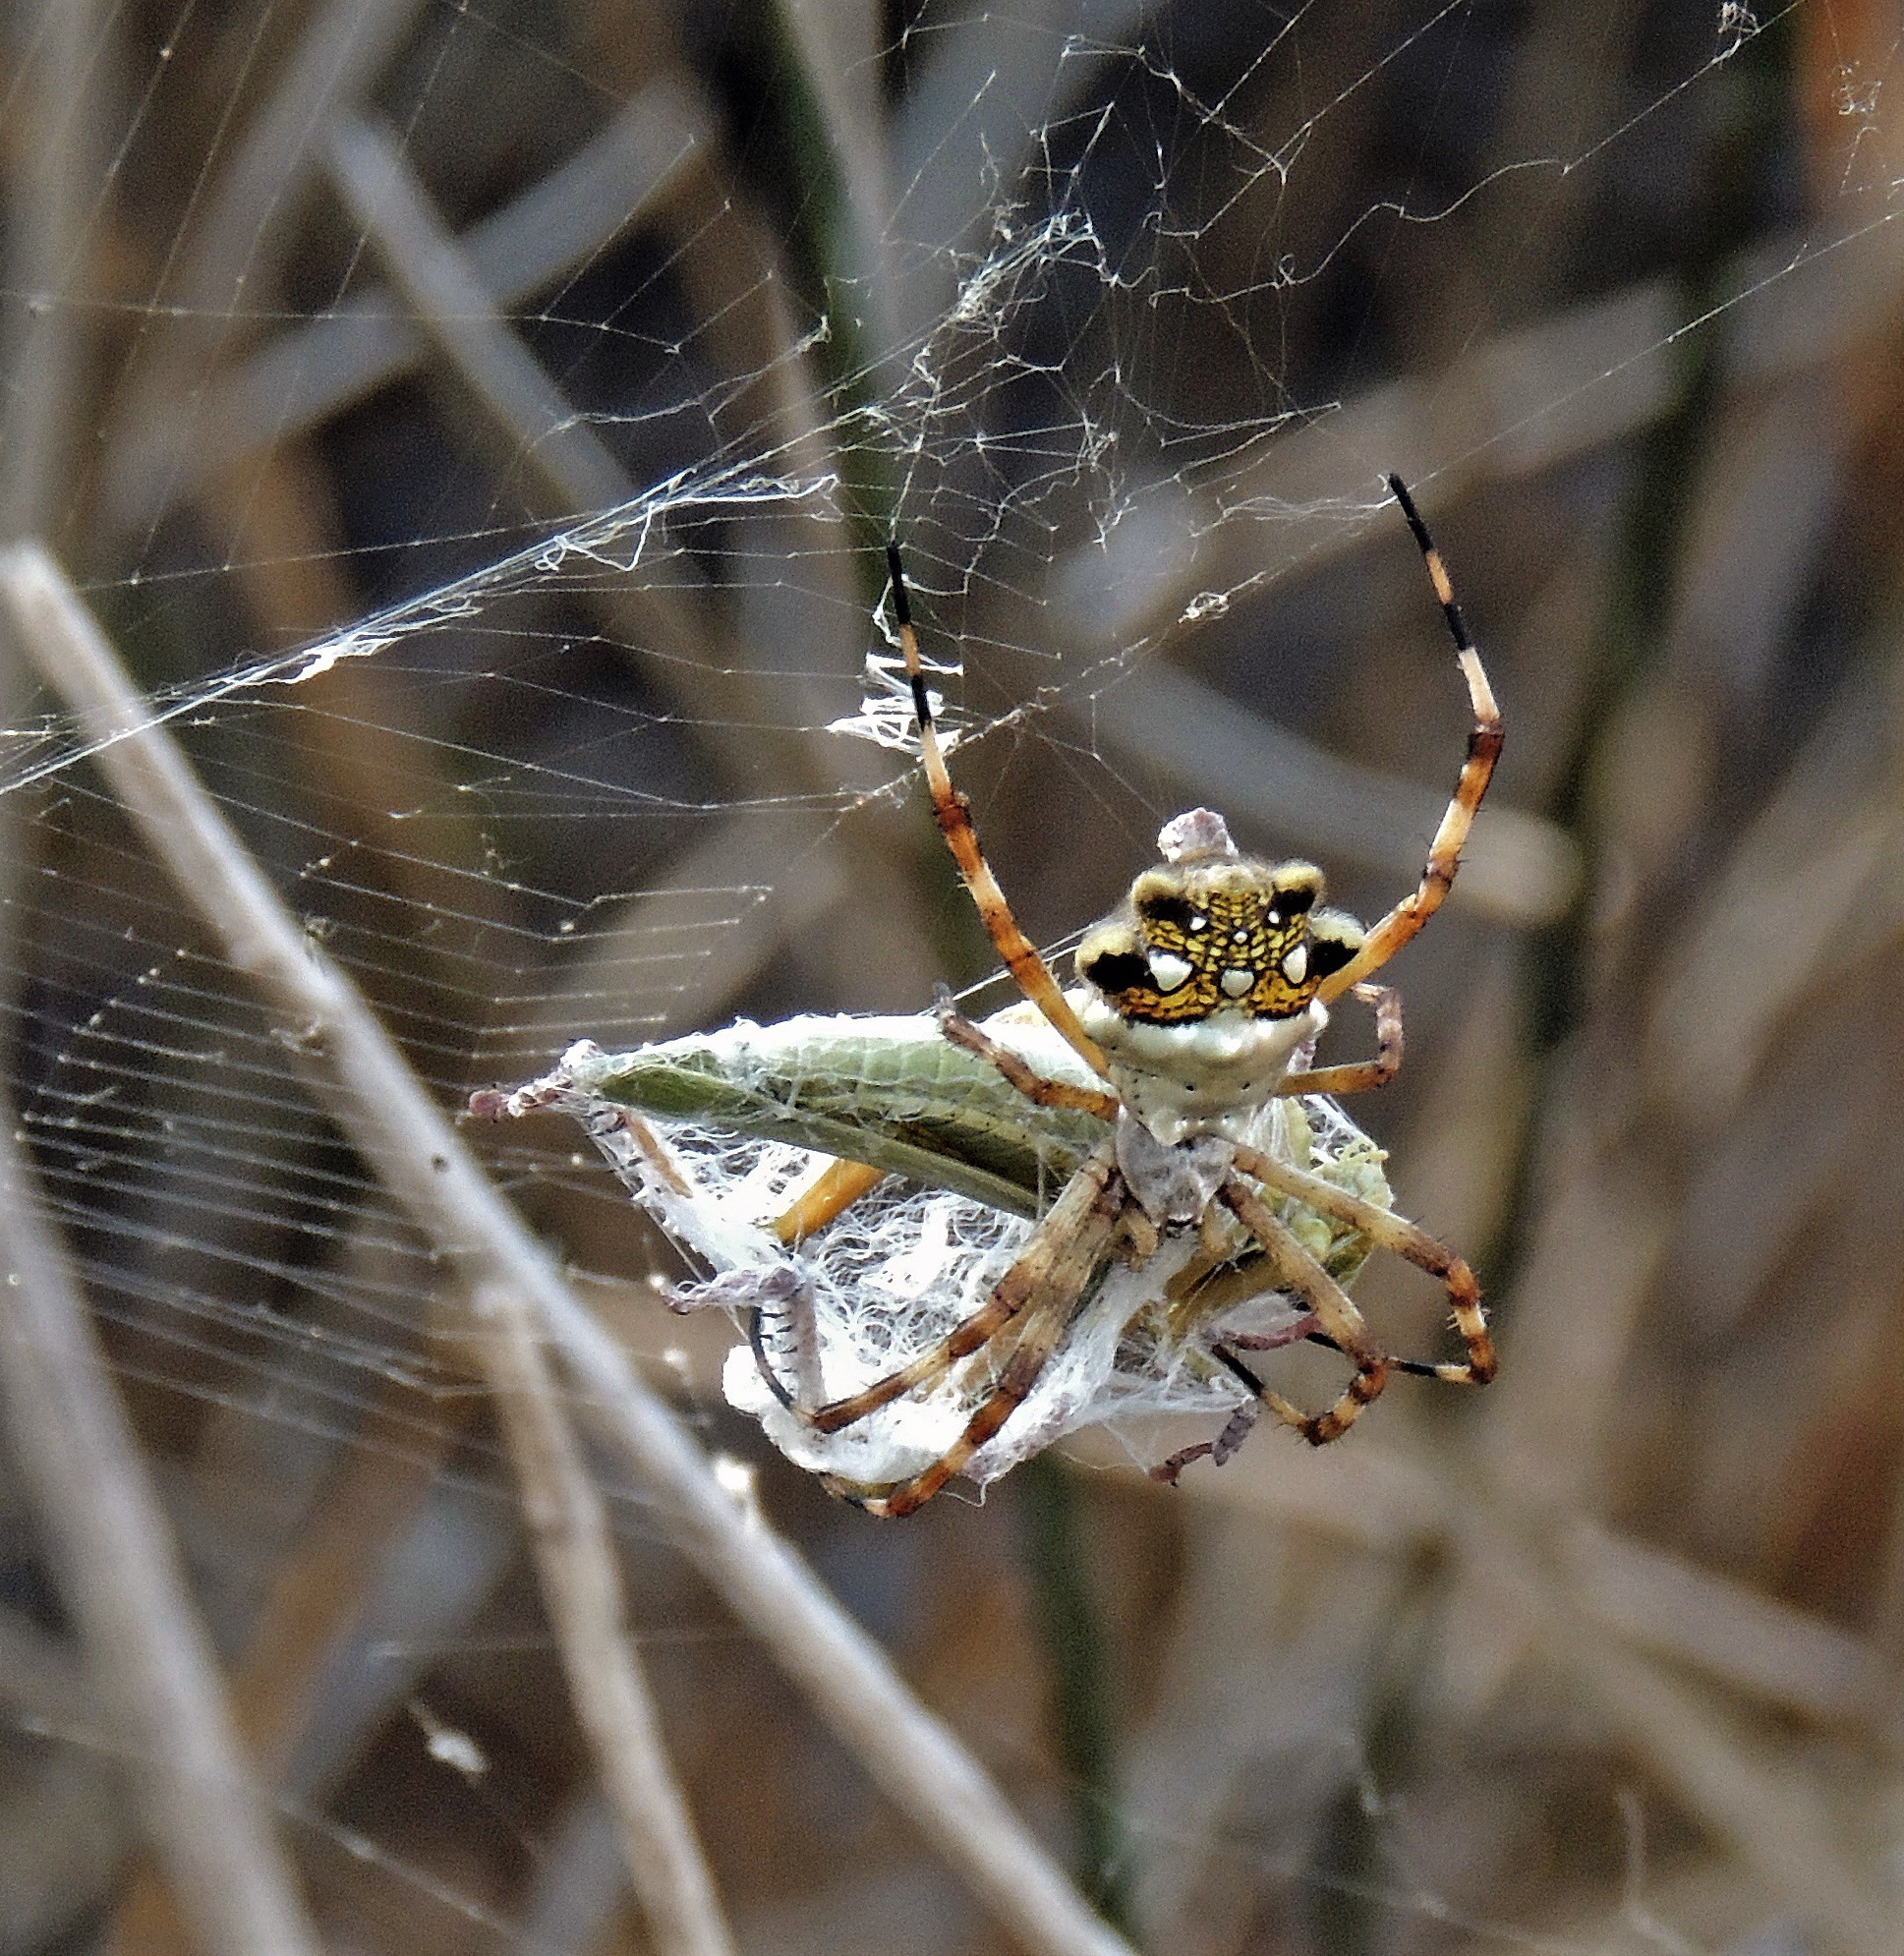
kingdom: Animalia
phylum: Arthropoda
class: Arachnida
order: Araneae
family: Araneidae
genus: Argiope
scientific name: Argiope argentata
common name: Orb weavers
